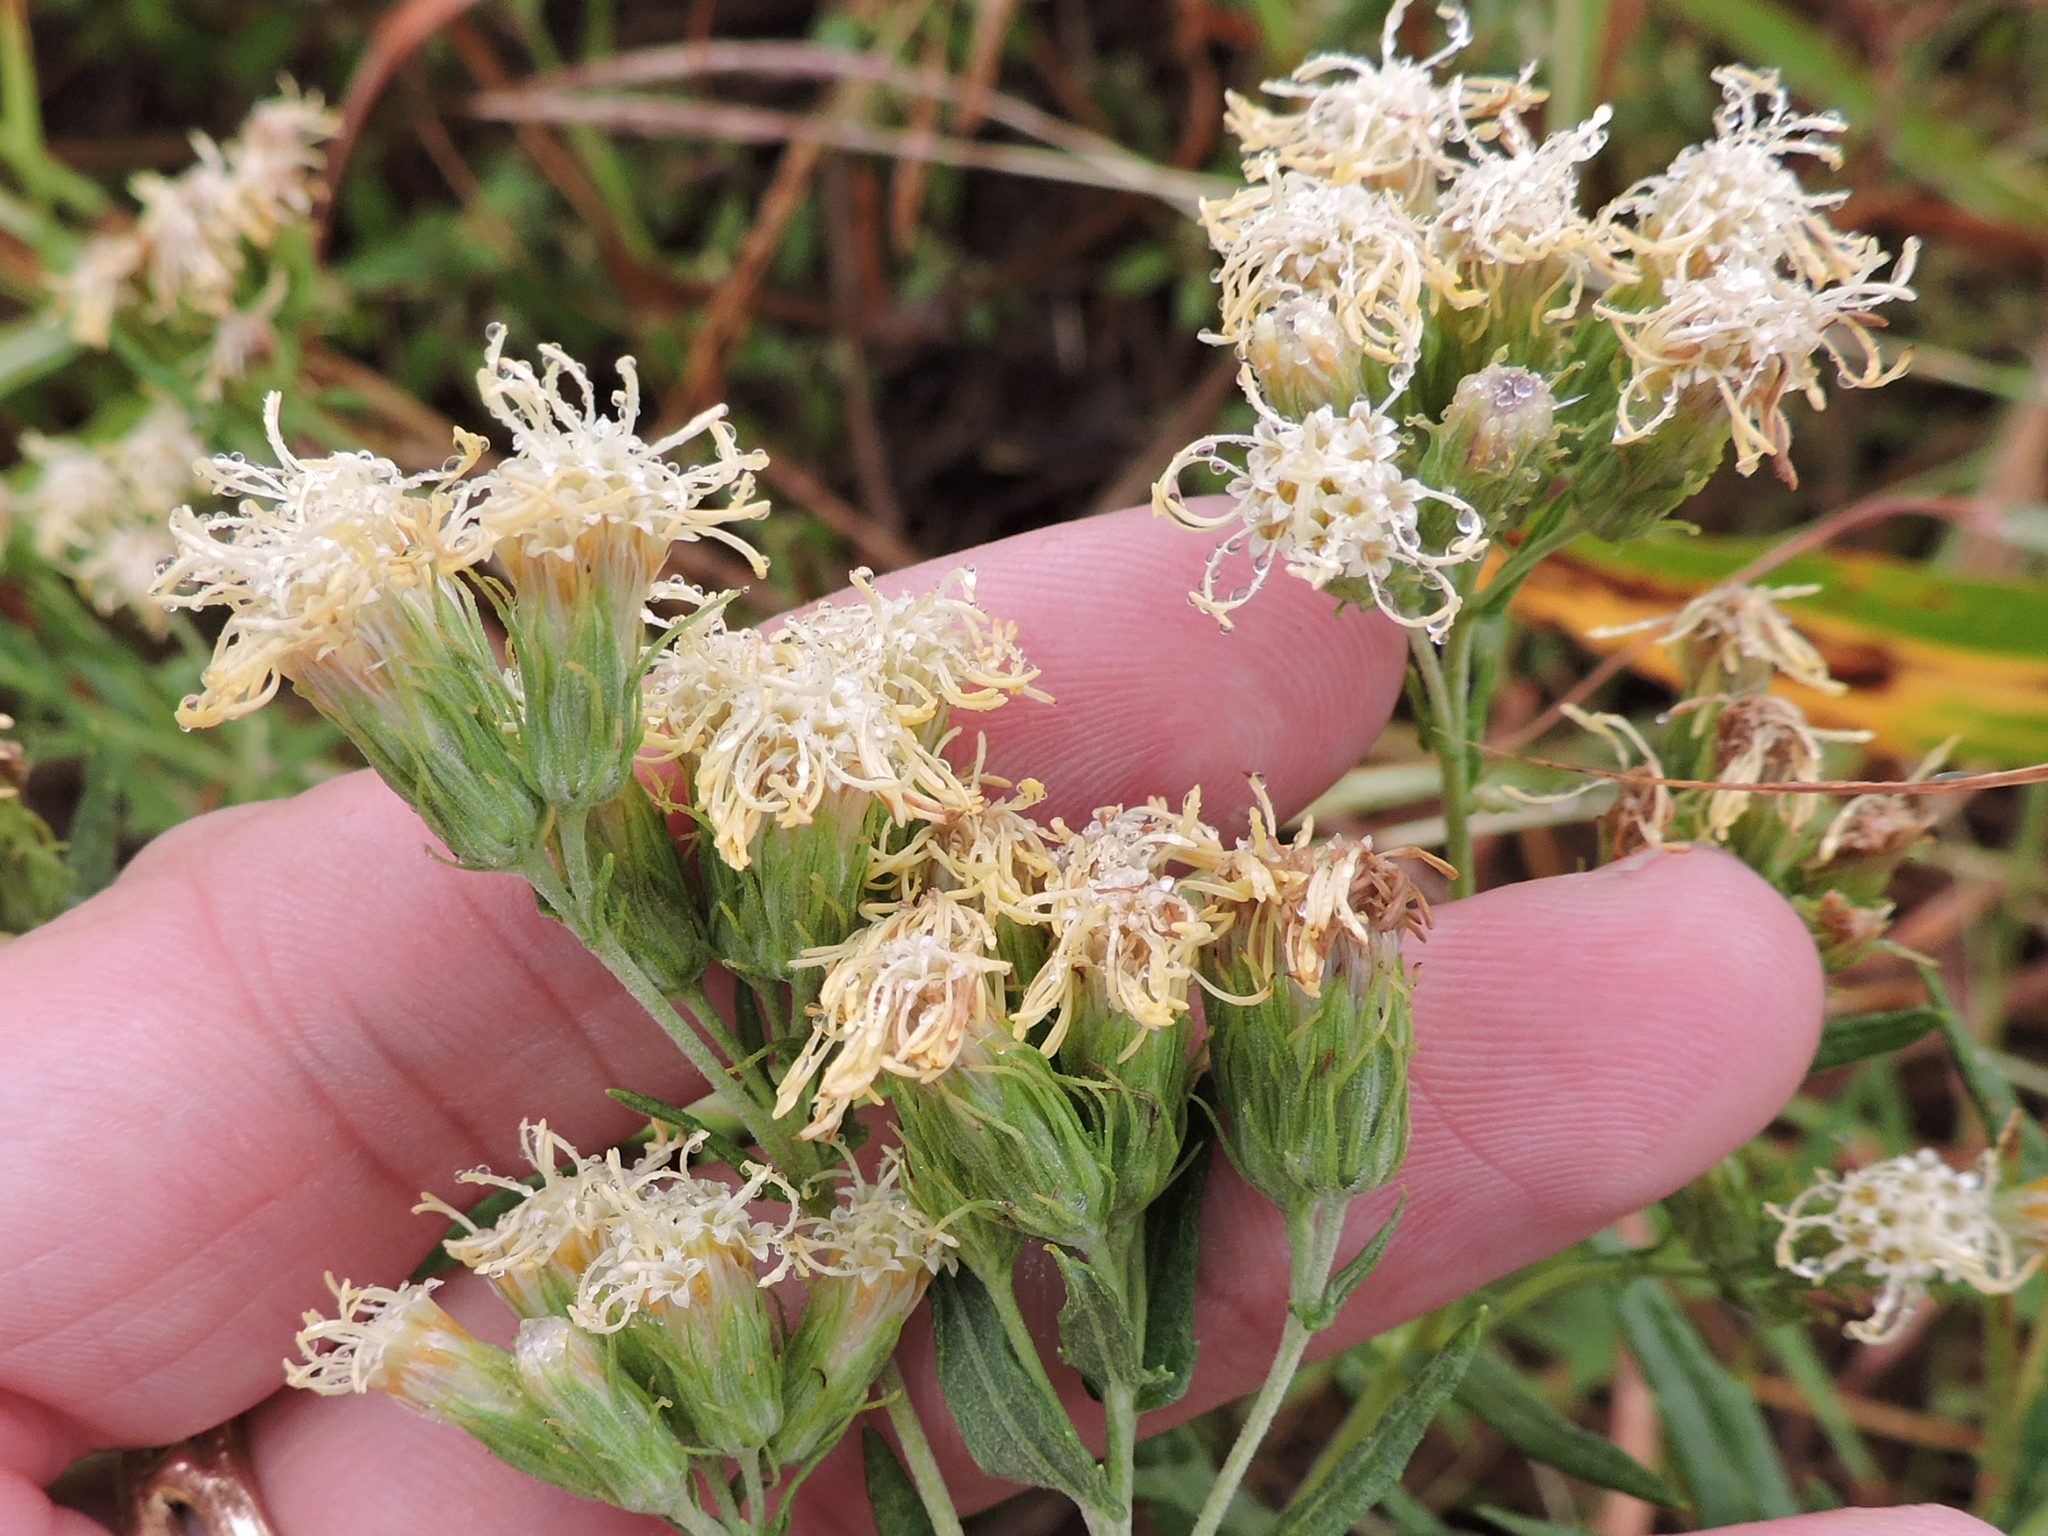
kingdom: Plantae
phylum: Tracheophyta
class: Magnoliopsida
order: Asterales
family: Asteraceae
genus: Brickellia
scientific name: Brickellia eupatorioides
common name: False boneset
